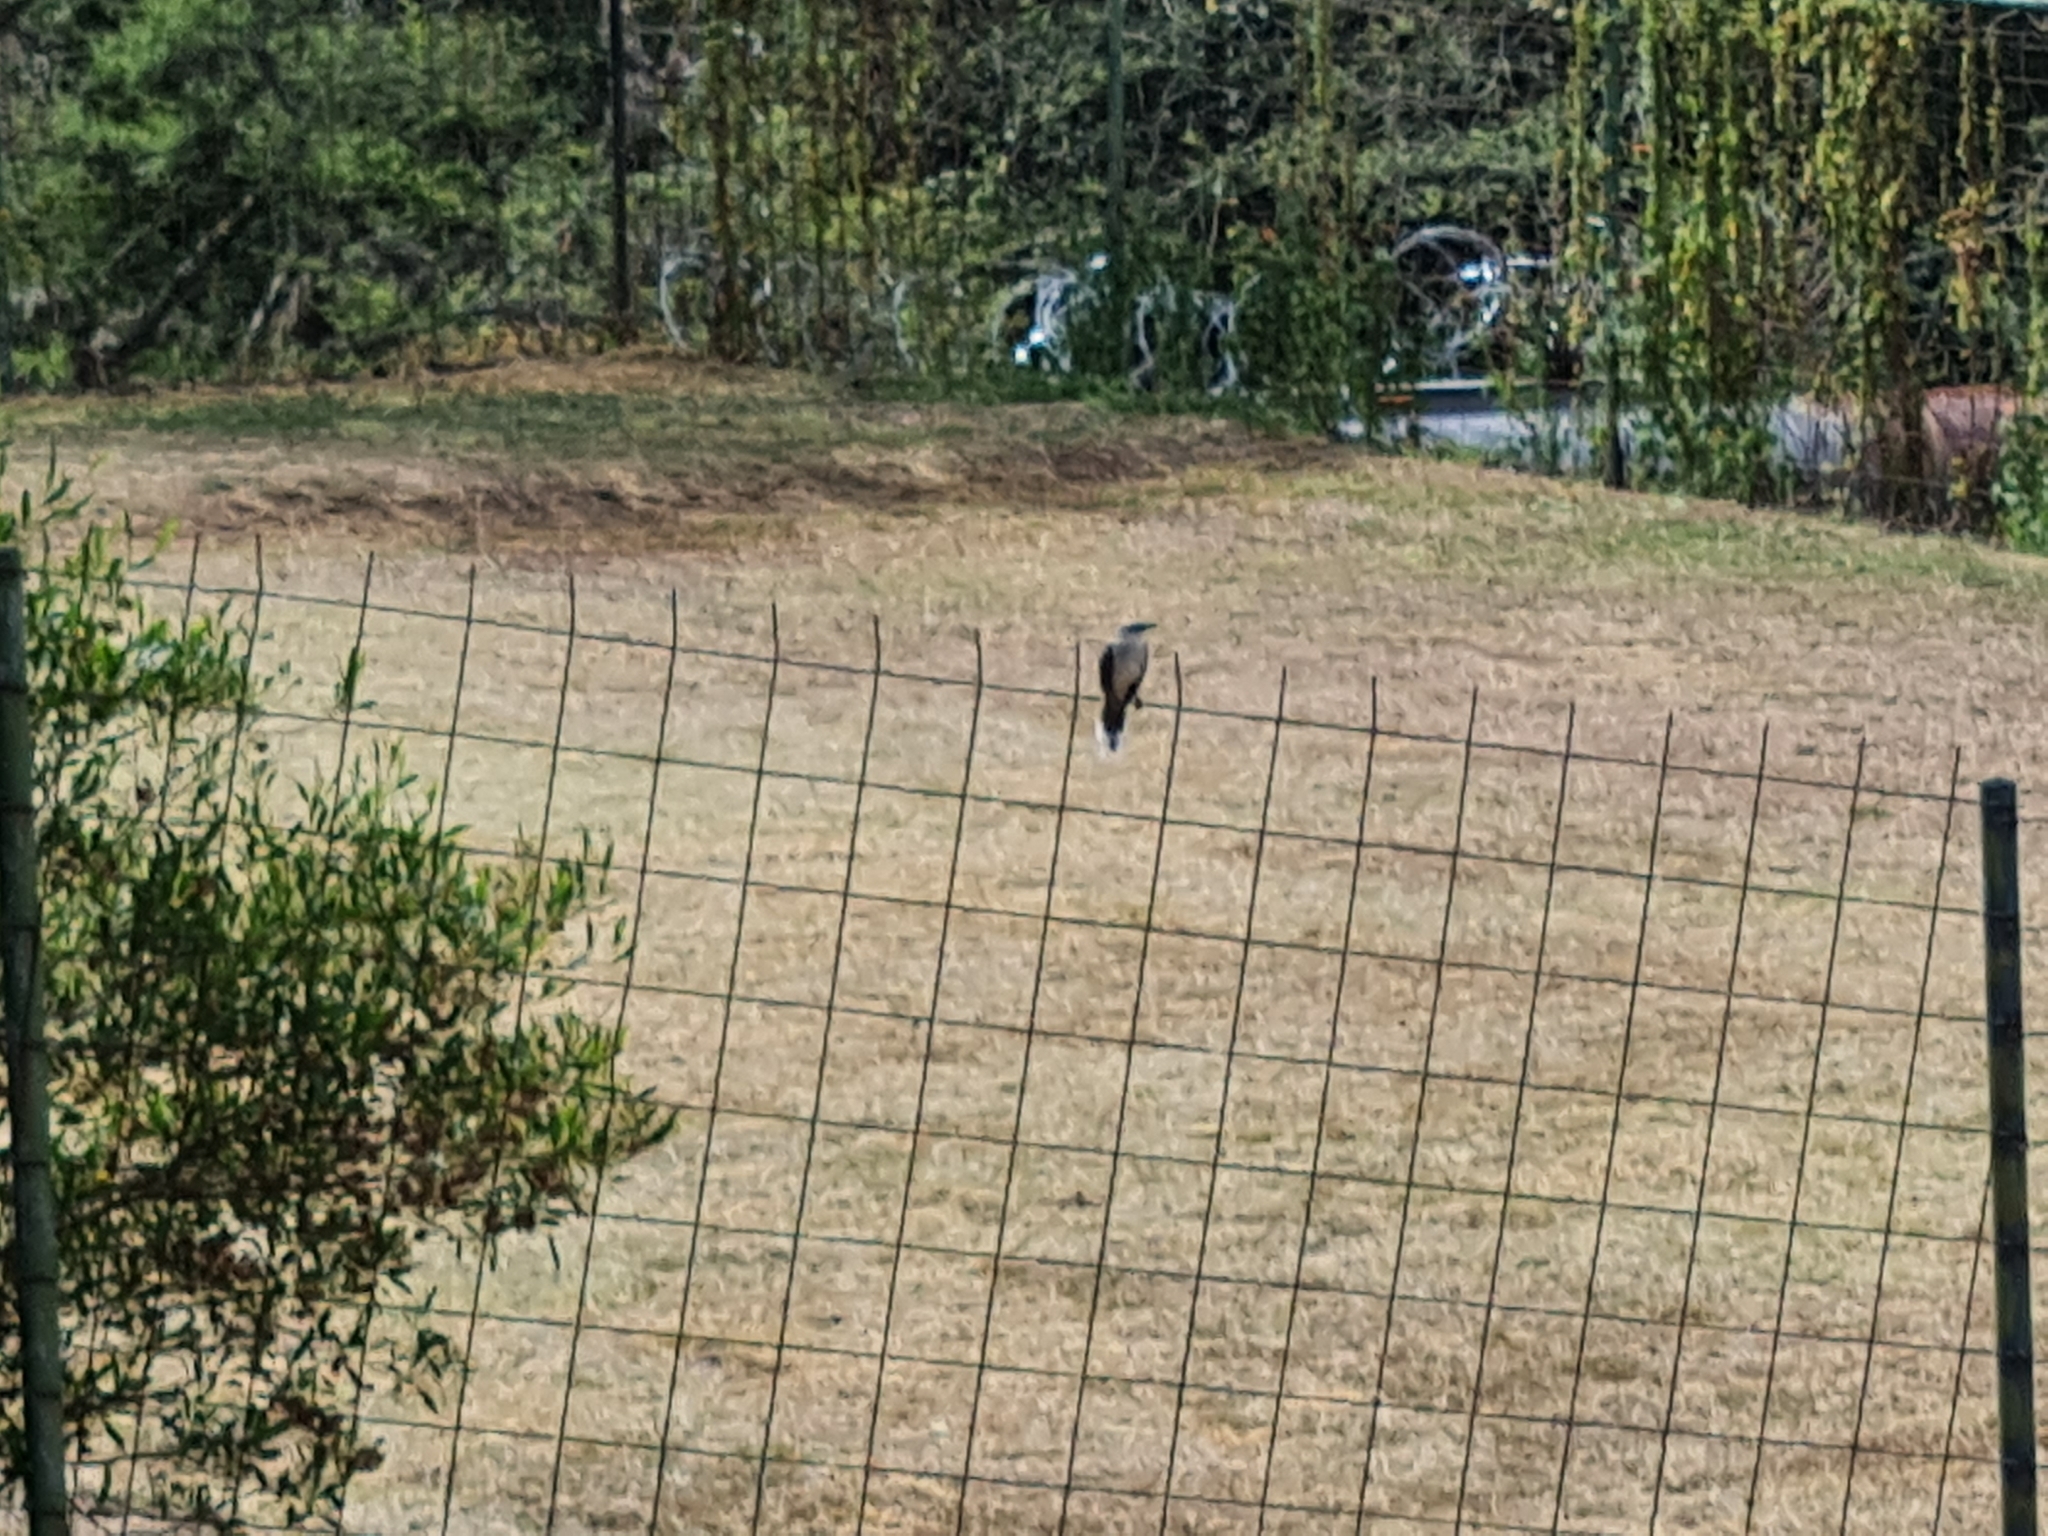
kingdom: Animalia
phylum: Chordata
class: Aves
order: Passeriformes
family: Mimidae
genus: Mimus
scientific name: Mimus gilvus
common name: Tropical mockingbird
